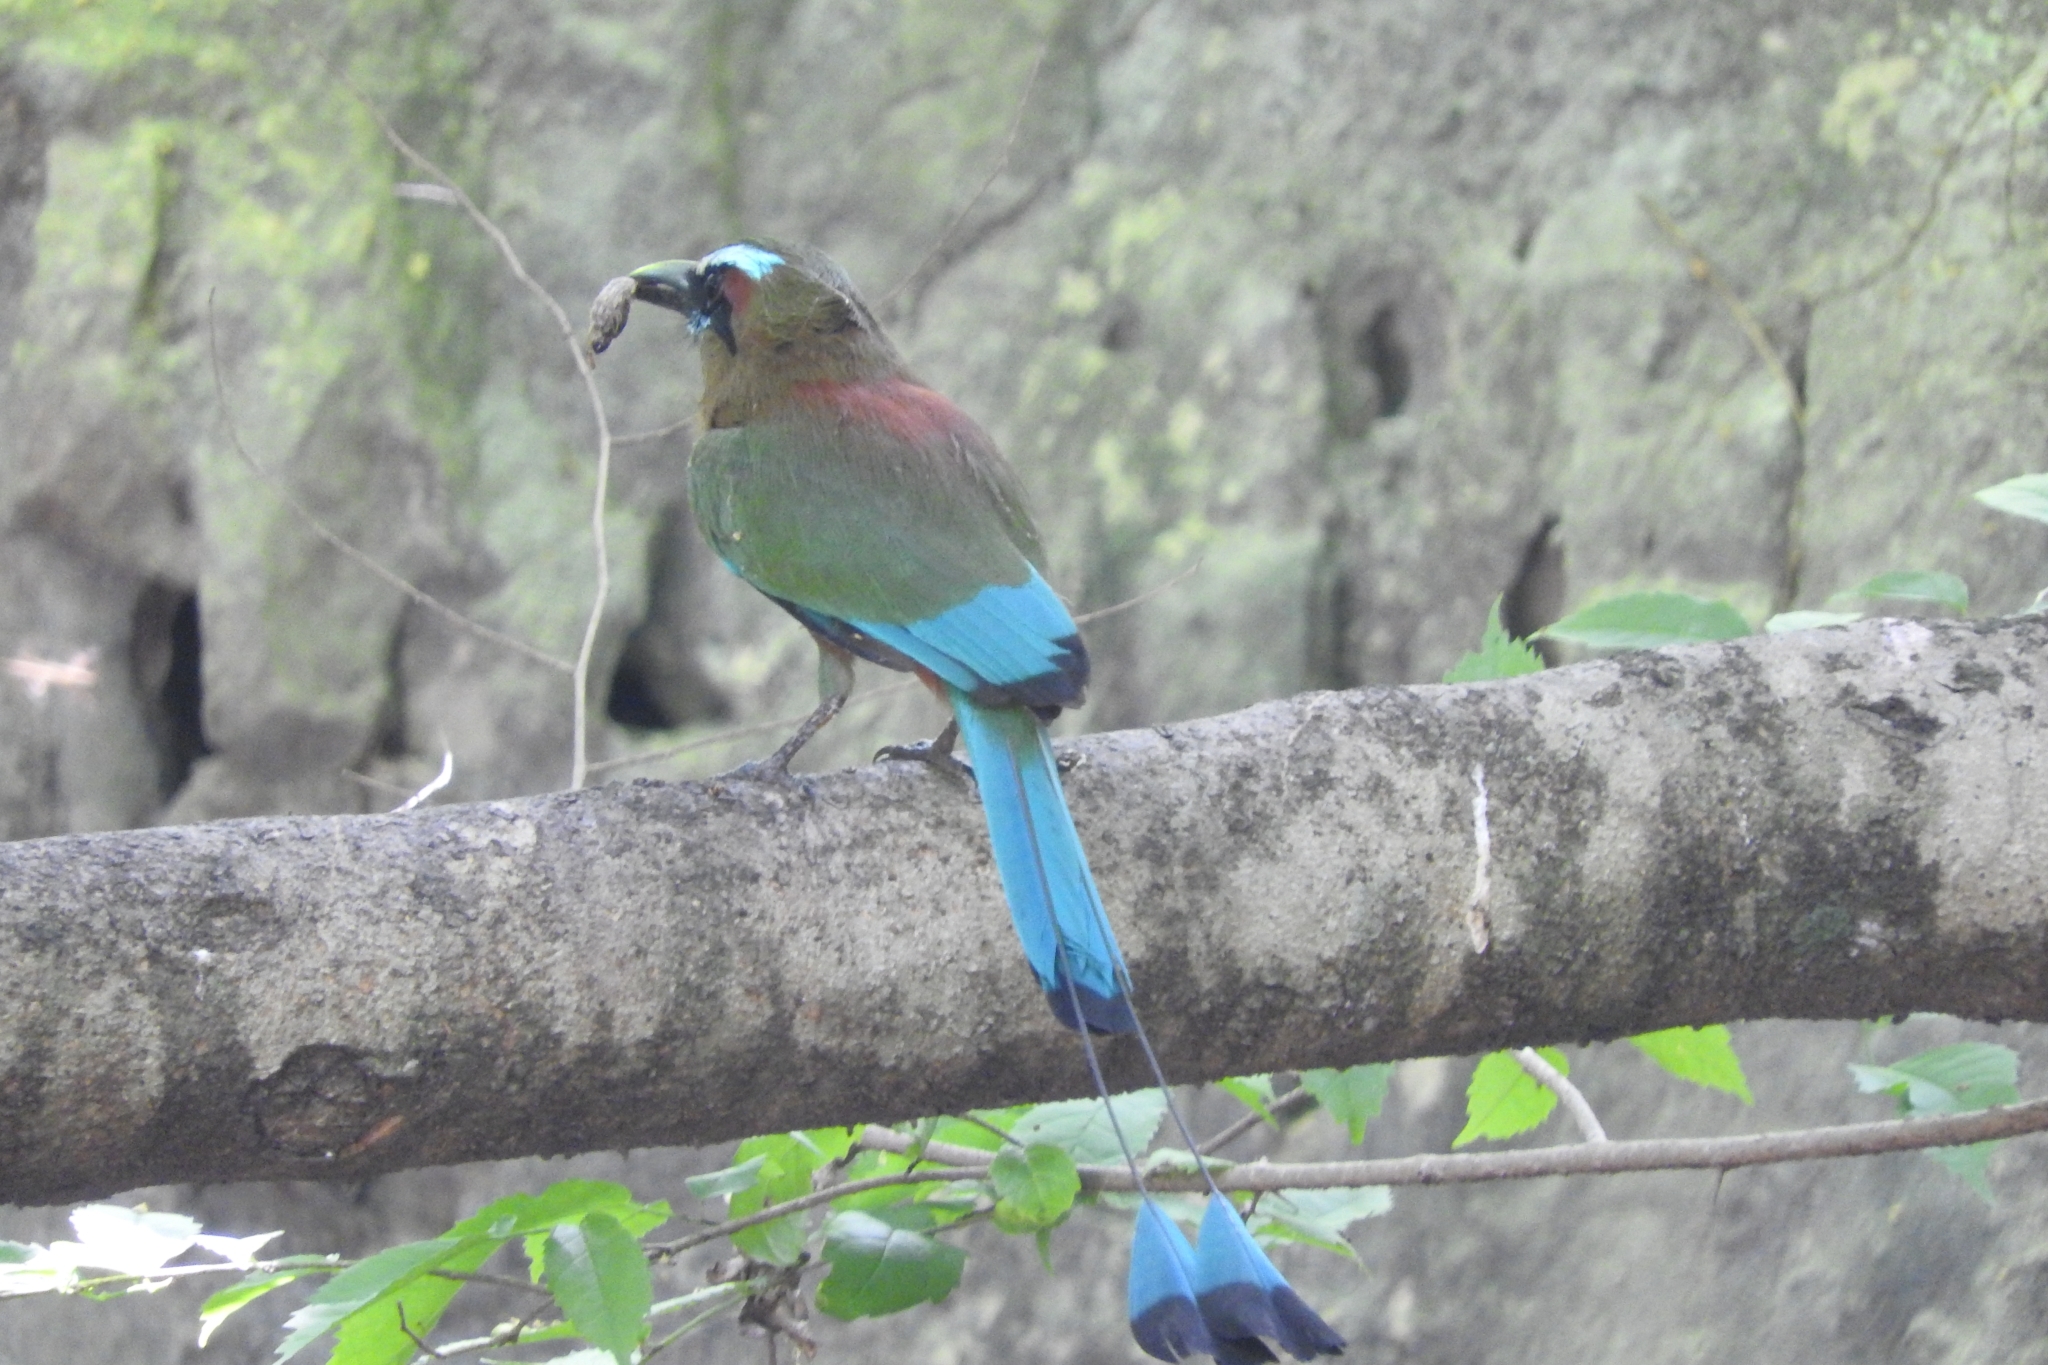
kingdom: Animalia
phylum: Chordata
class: Aves
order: Coraciiformes
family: Momotidae
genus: Eumomota
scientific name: Eumomota superciliosa
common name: Turquoise-browed motmot
